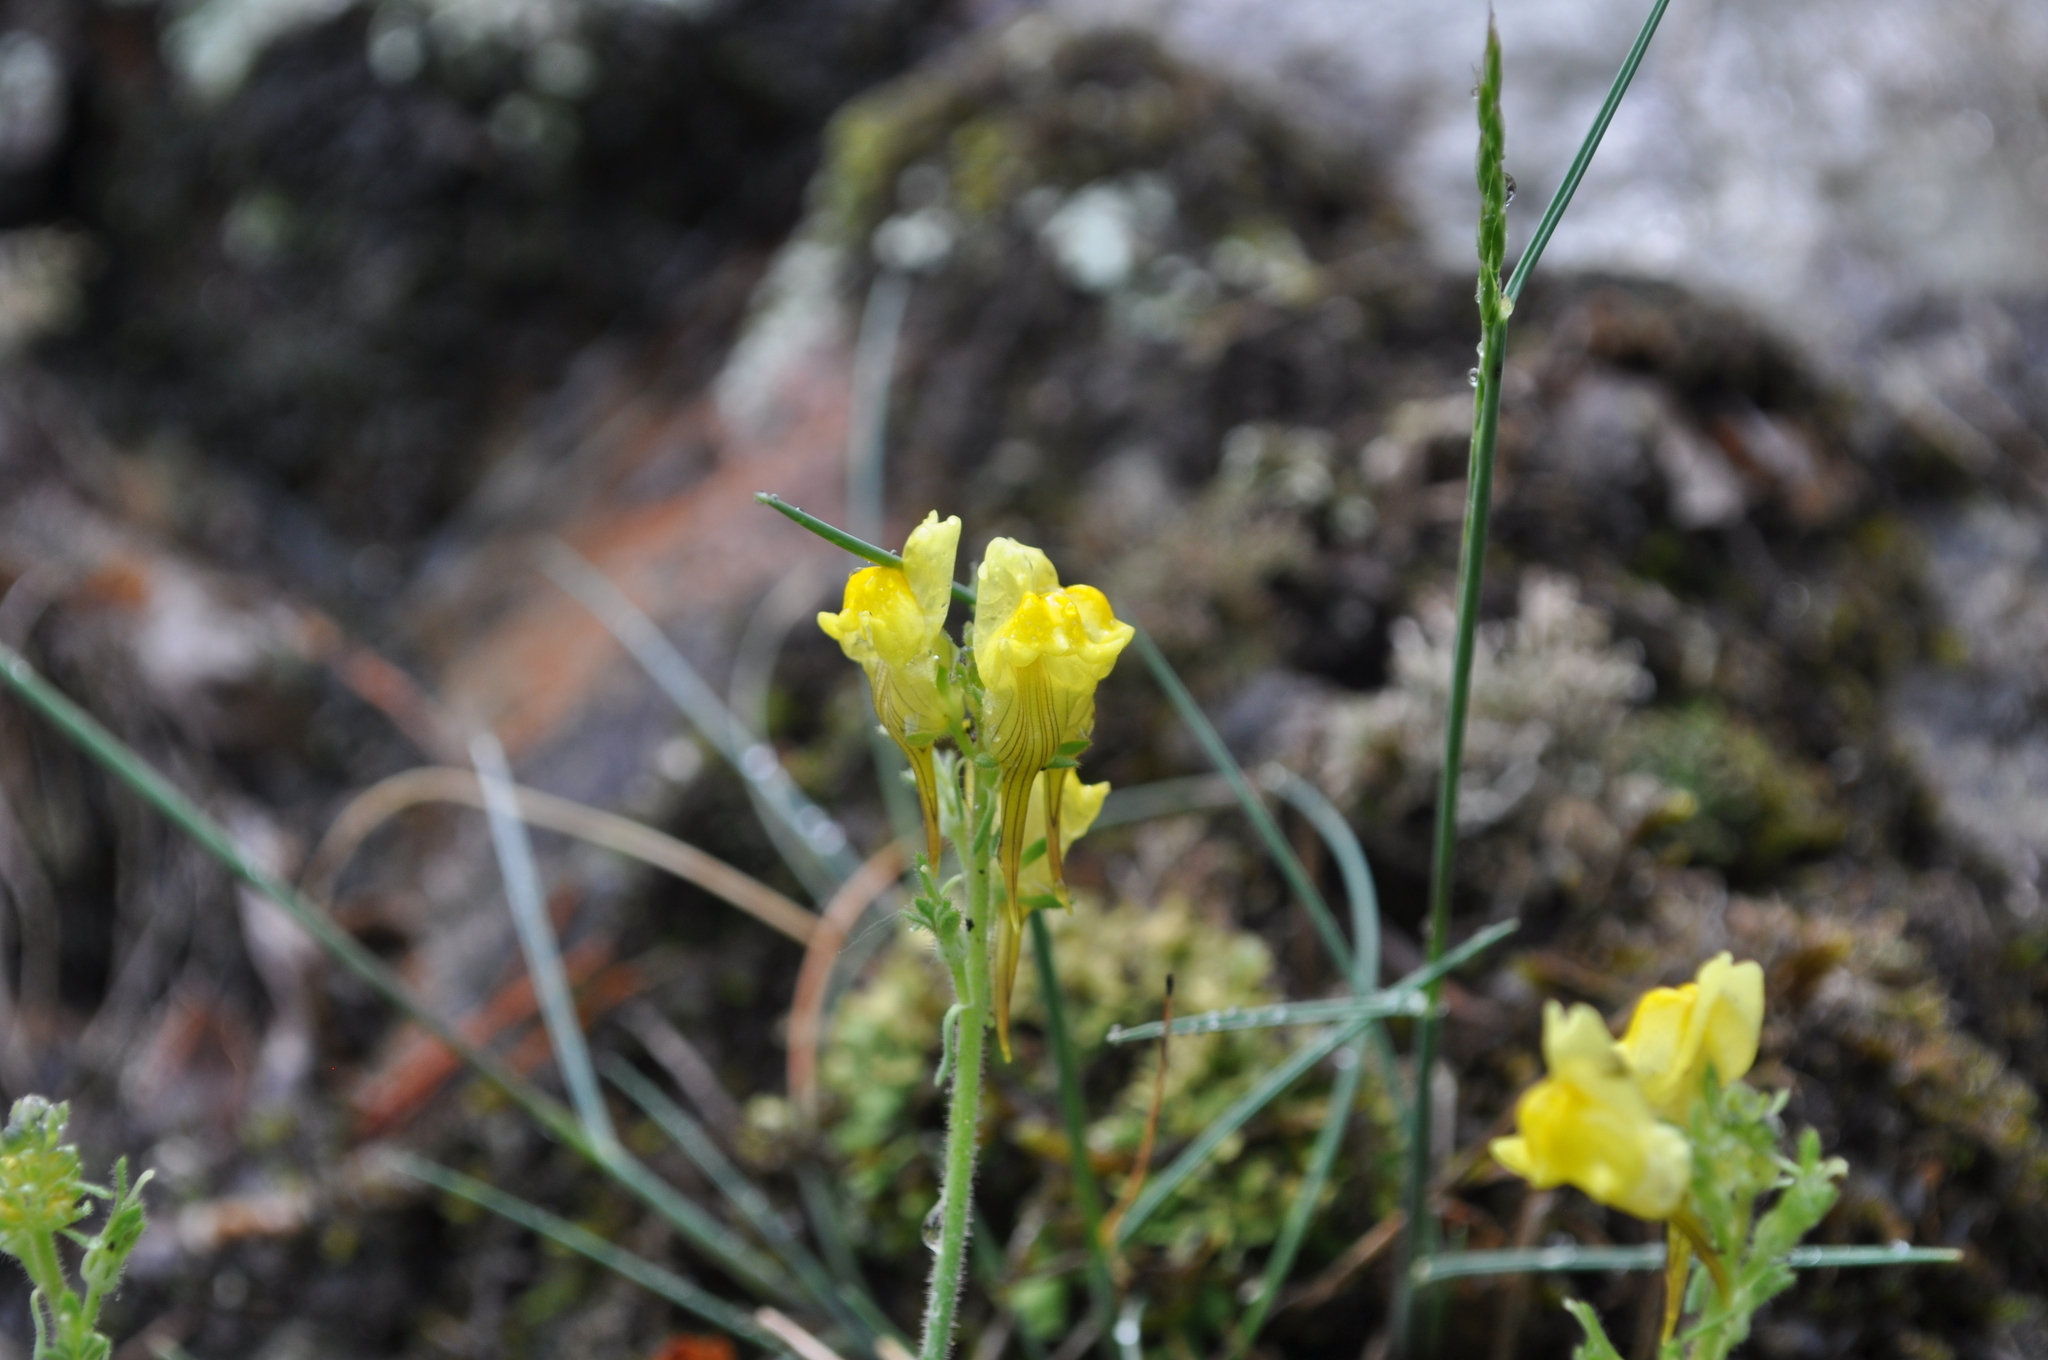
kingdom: Plantae
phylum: Tracheophyta
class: Magnoliopsida
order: Lamiales
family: Plantaginaceae
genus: Linaria
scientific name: Linaria supina
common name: Prostrate toadflax
